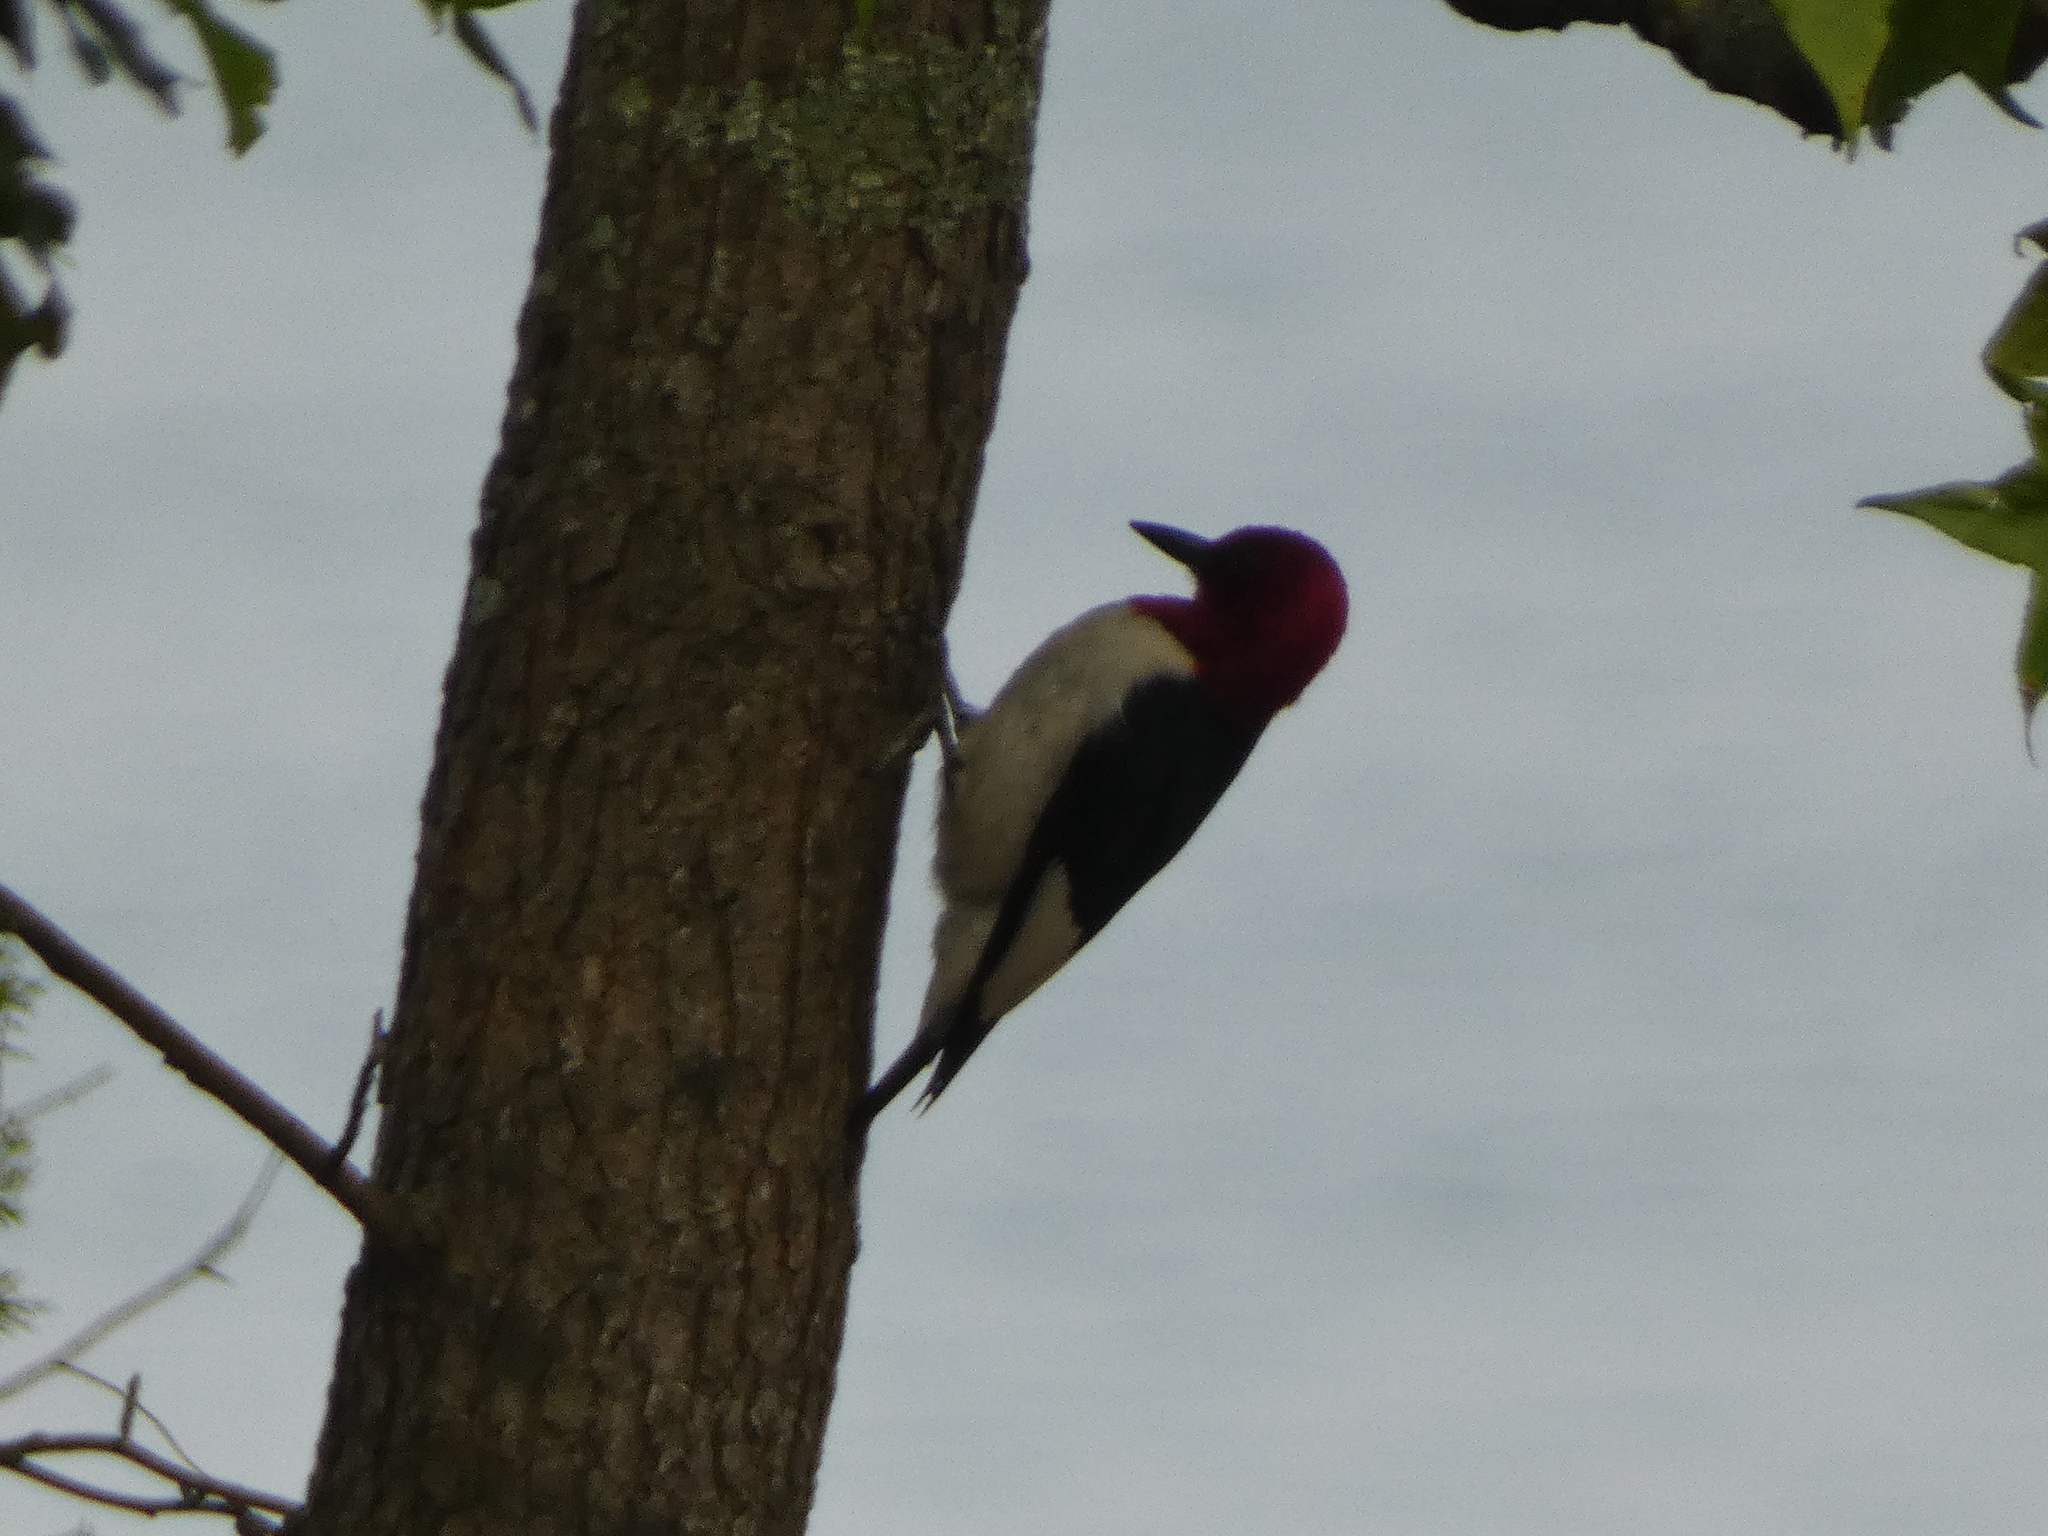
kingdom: Animalia
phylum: Chordata
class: Aves
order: Piciformes
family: Picidae
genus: Melanerpes
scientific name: Melanerpes erythrocephalus
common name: Red-headed woodpecker
